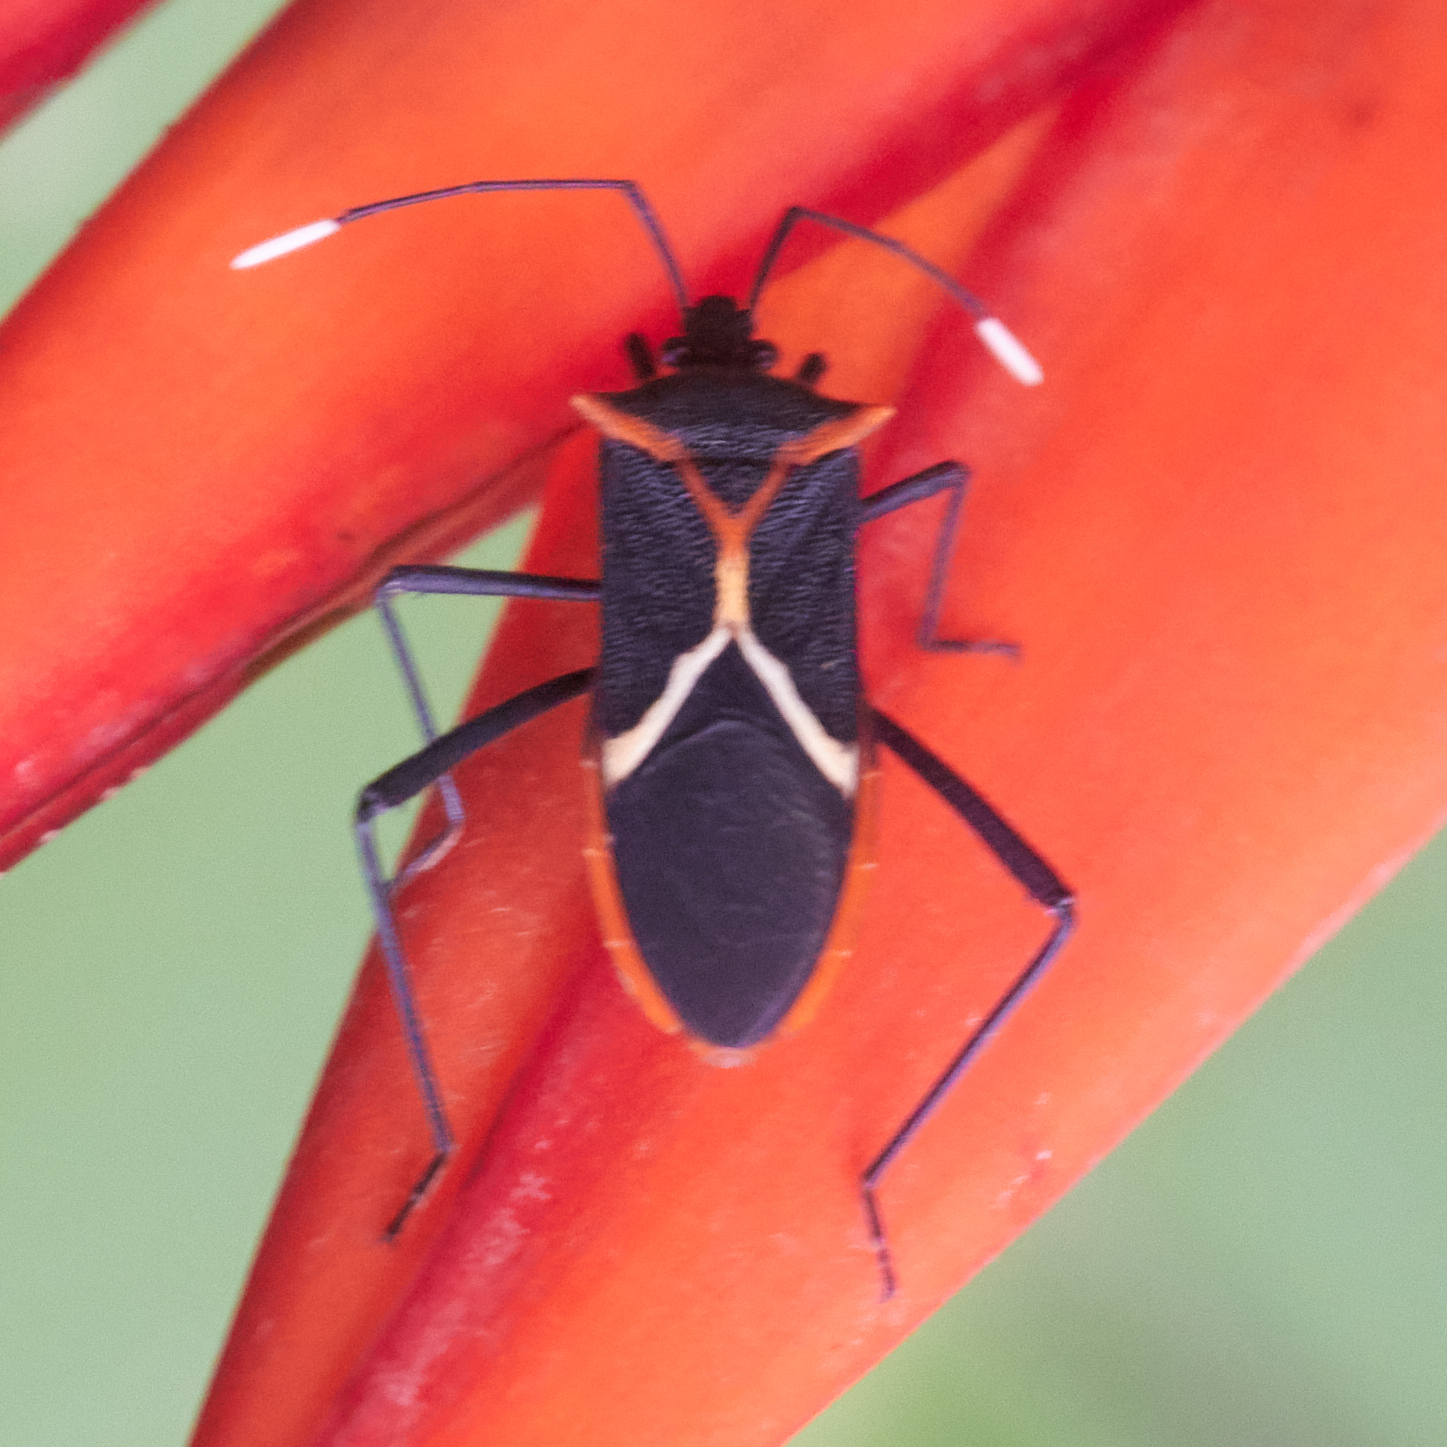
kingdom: Animalia
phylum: Arthropoda
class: Insecta
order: Hemiptera
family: Coreidae
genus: Leptoscelis
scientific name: Leptoscelis tricolor
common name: Heliconia bug
